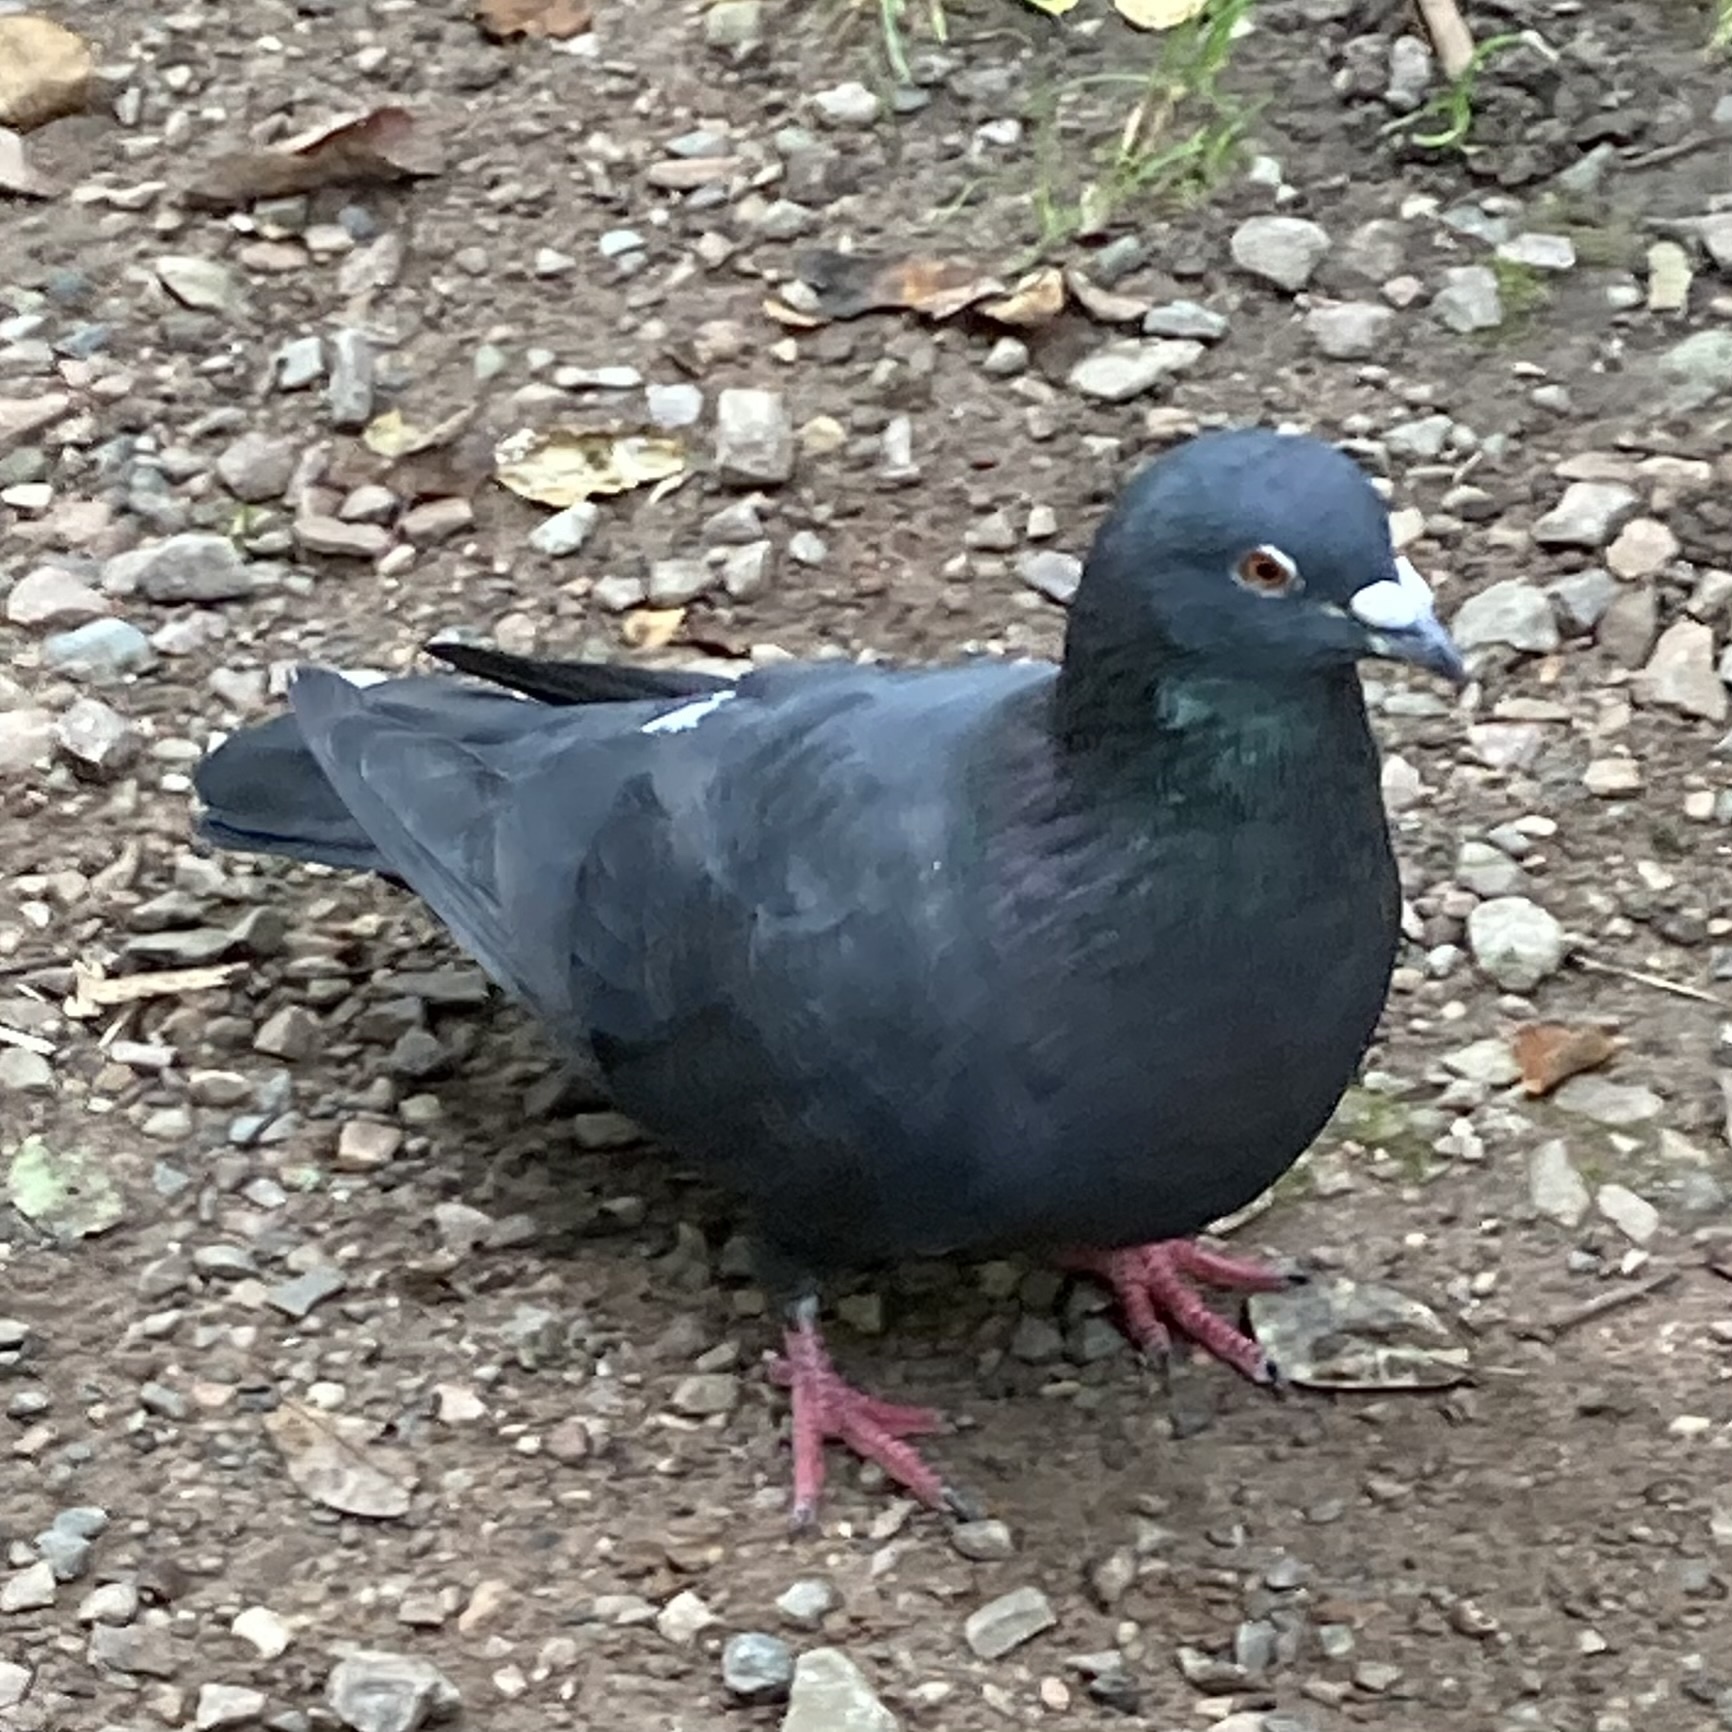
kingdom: Animalia
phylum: Chordata
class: Aves
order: Columbiformes
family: Columbidae
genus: Columba
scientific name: Columba livia
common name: Rock pigeon
